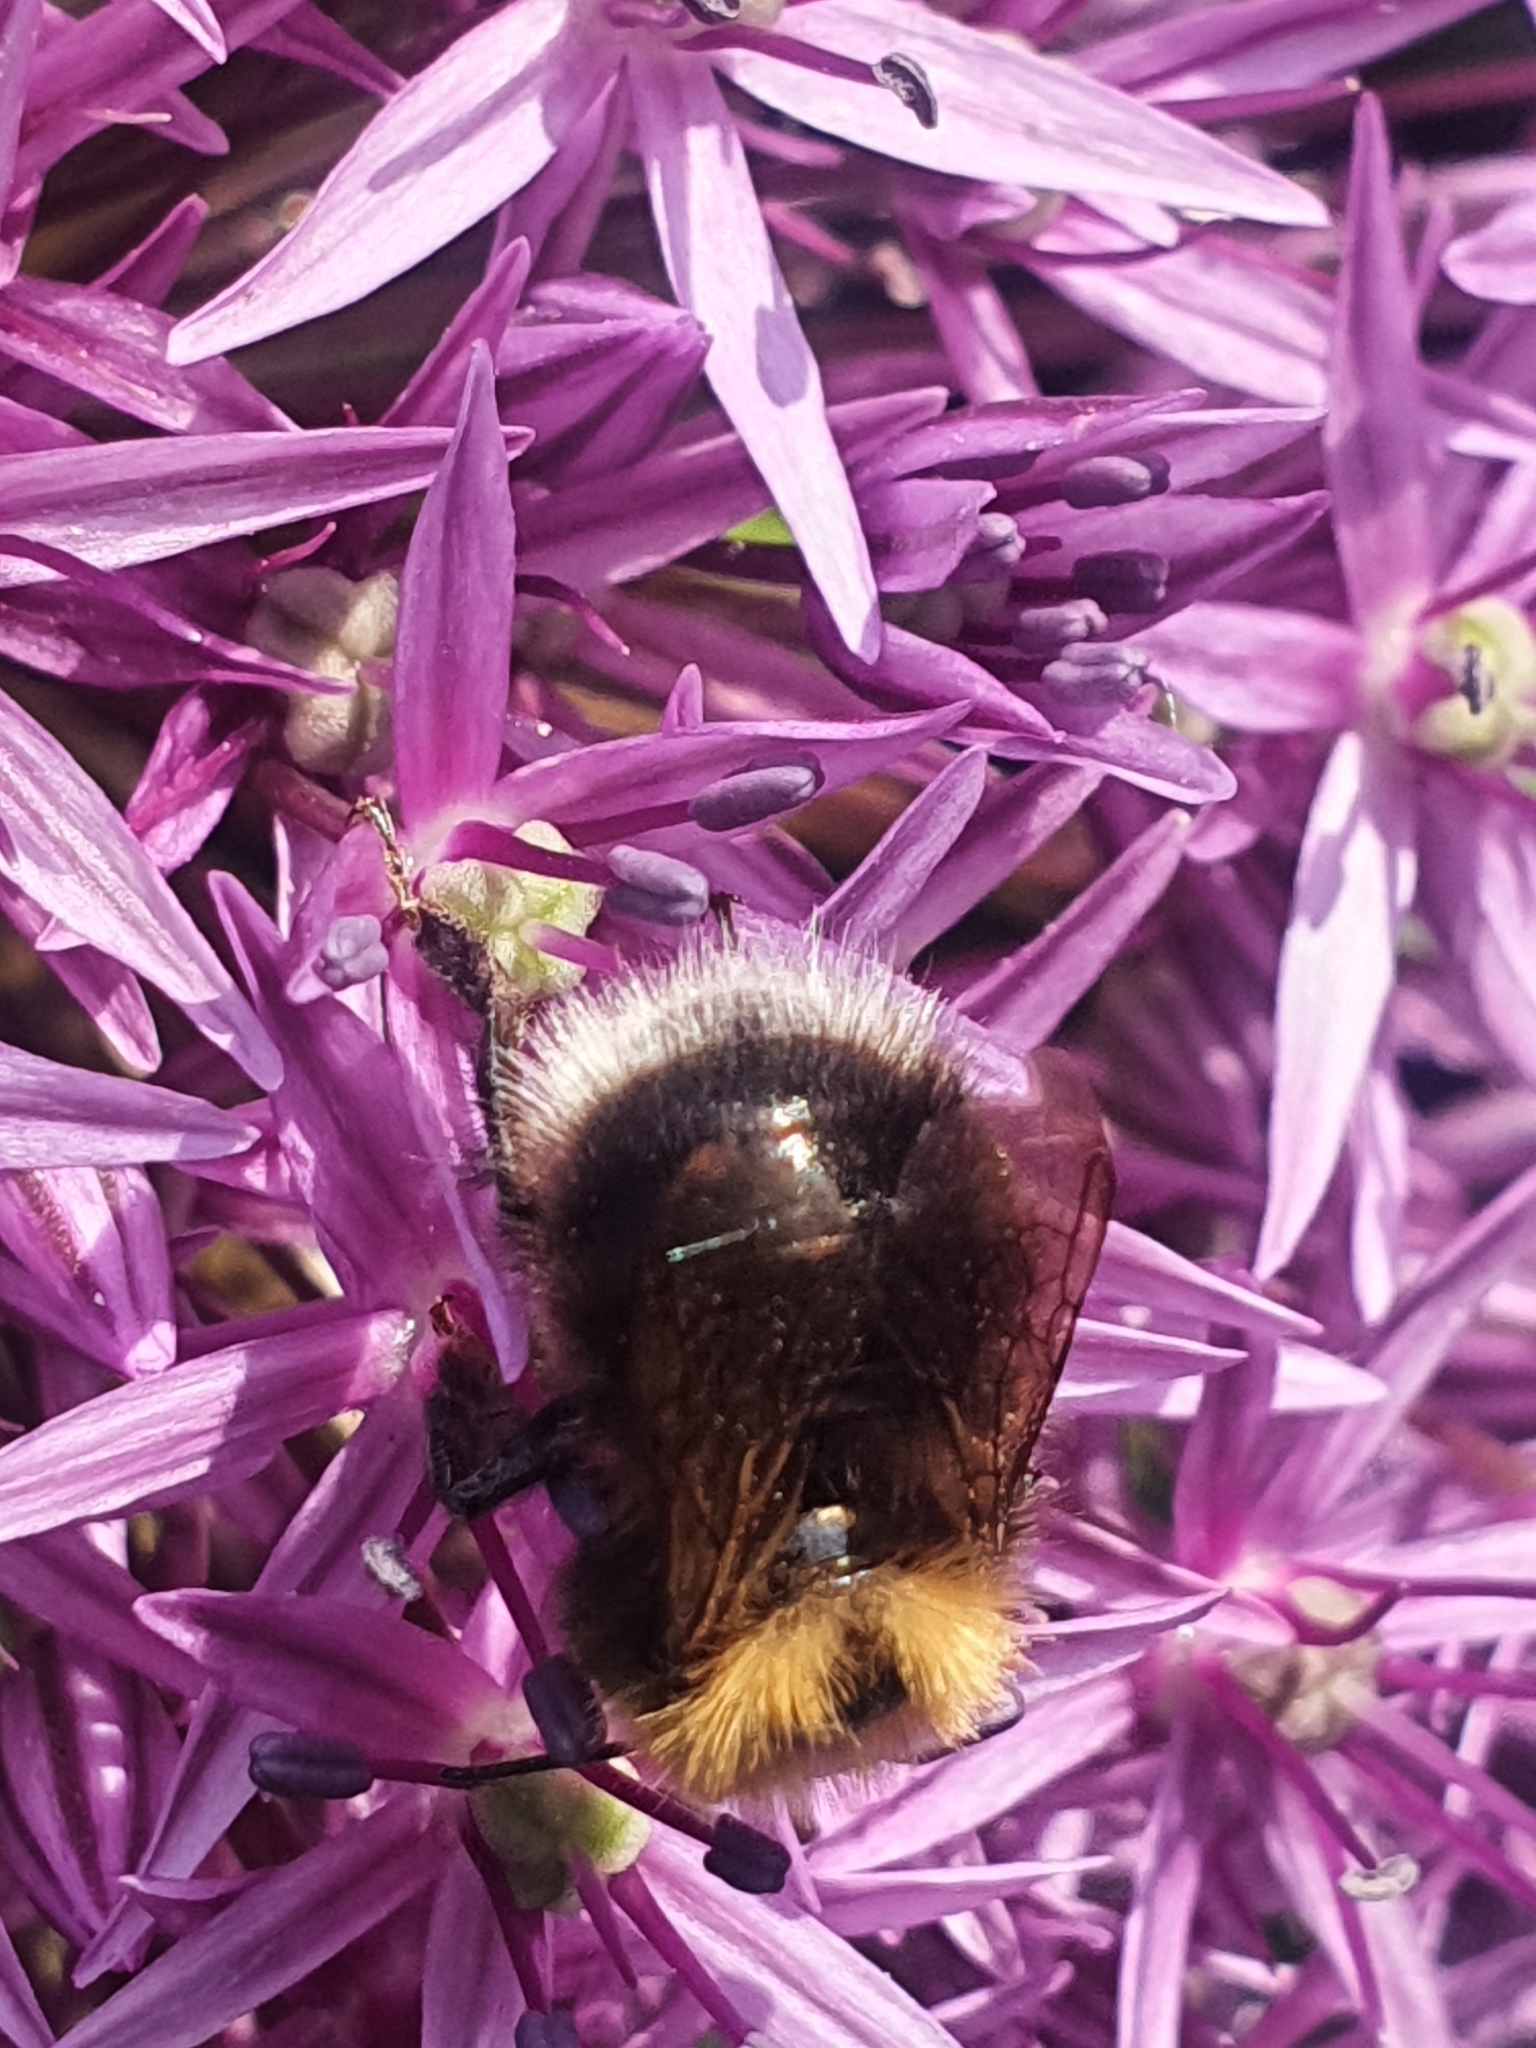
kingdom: Animalia
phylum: Arthropoda
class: Insecta
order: Hymenoptera
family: Apidae
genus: Bombus
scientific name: Bombus hypnorum
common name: New garden bumblebee
